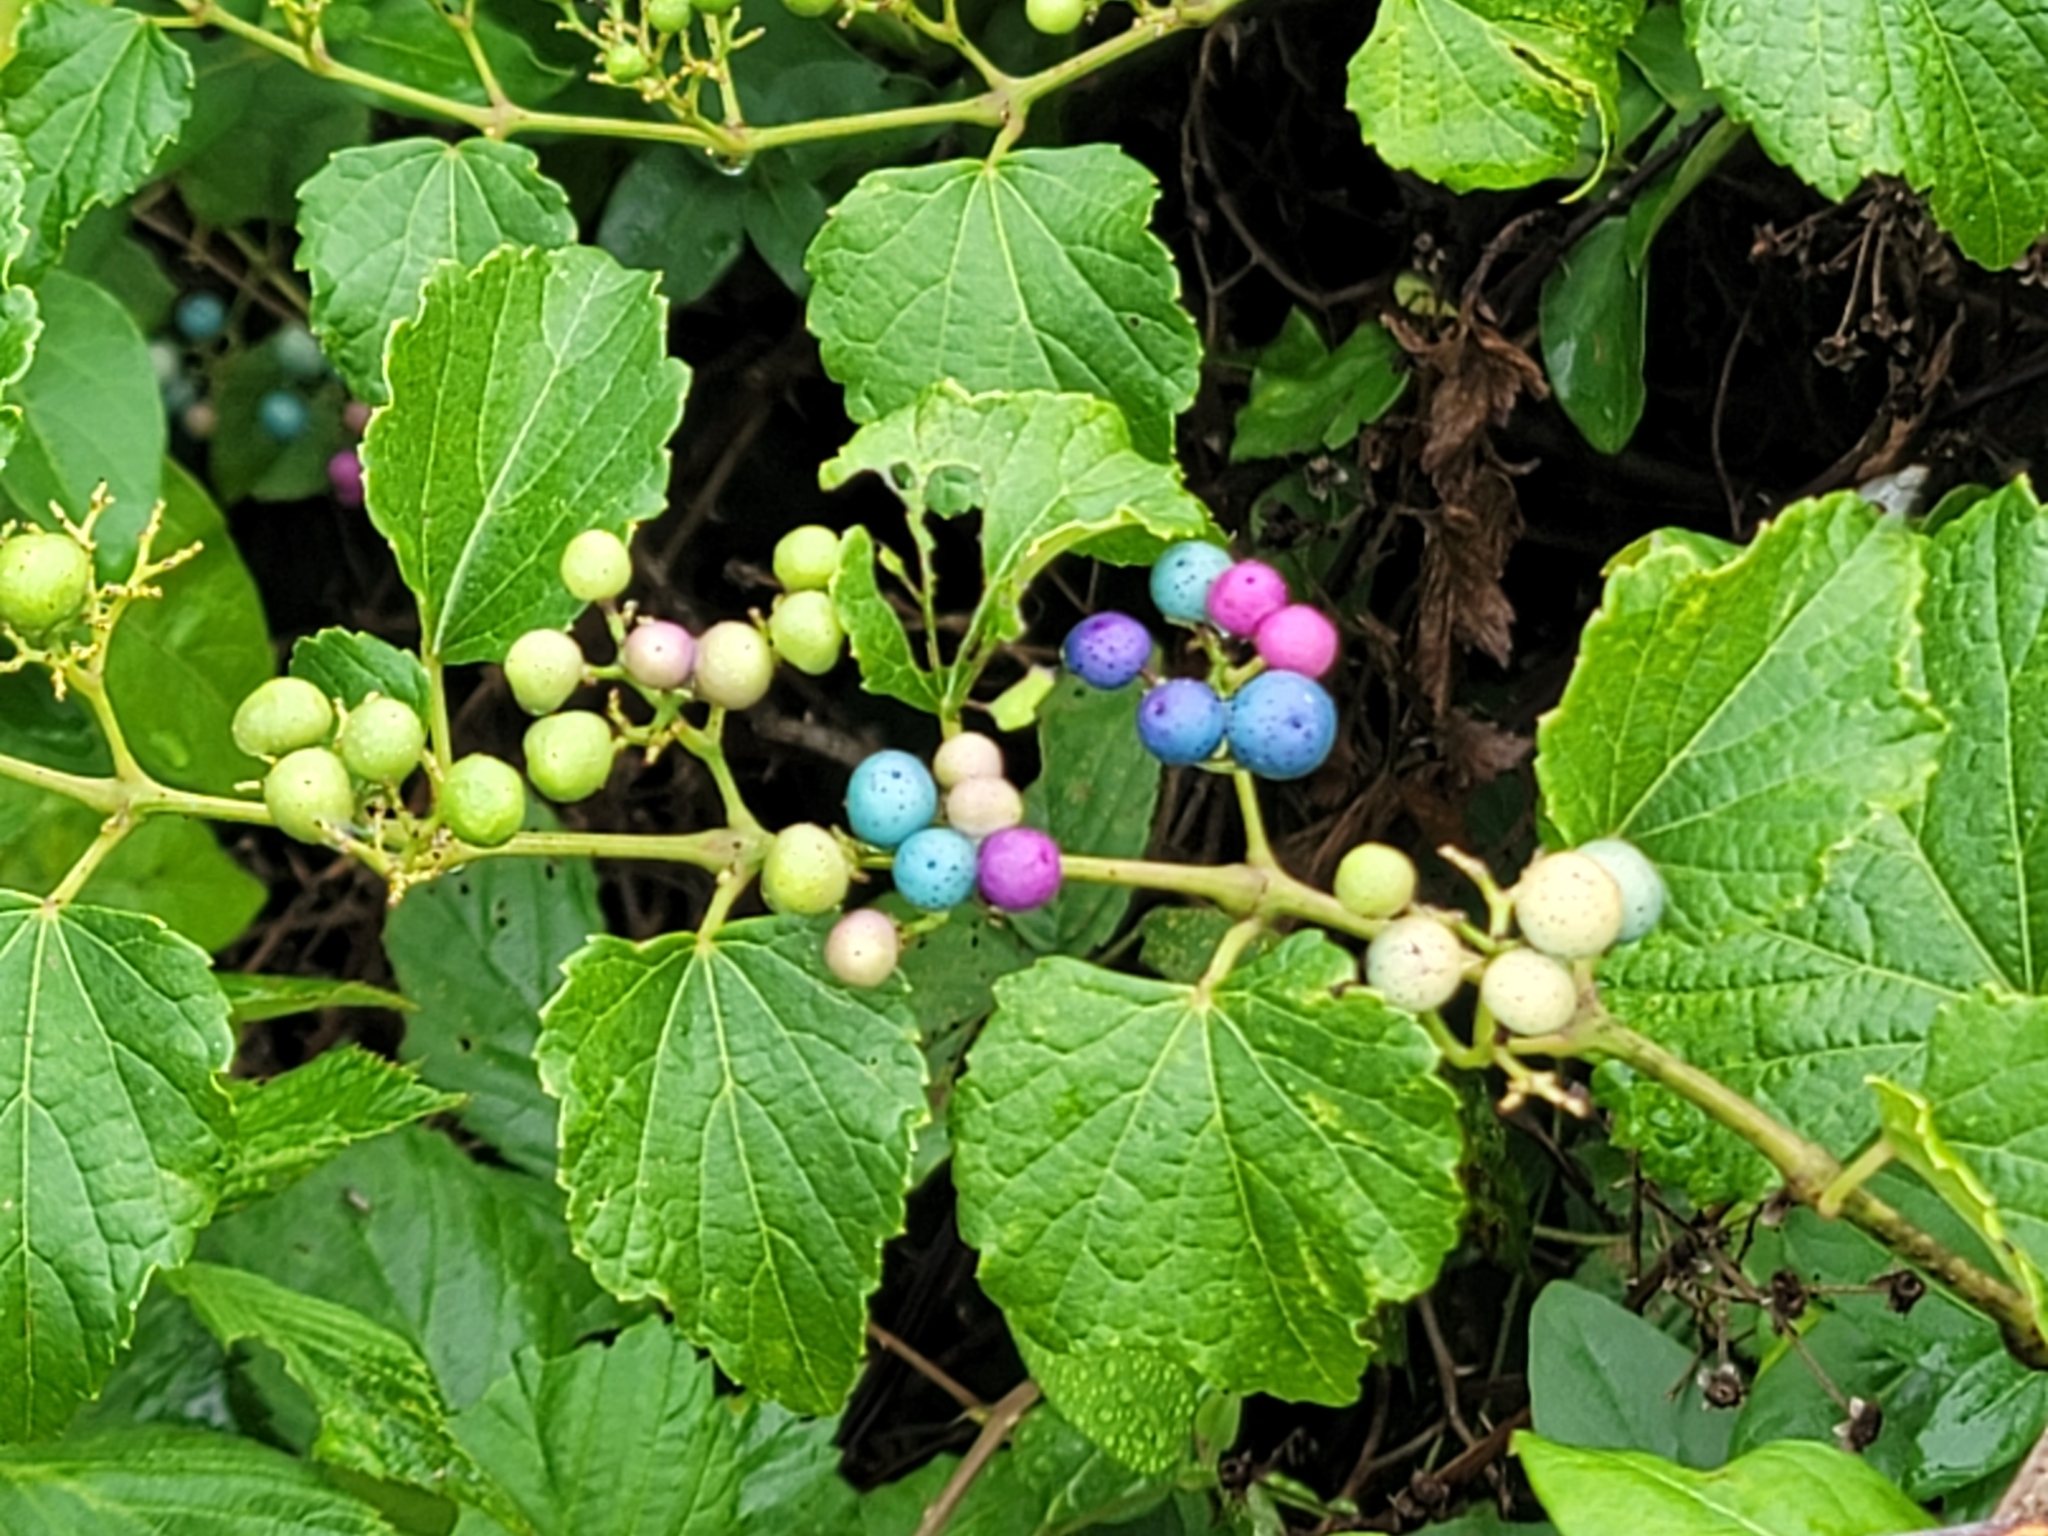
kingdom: Plantae
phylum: Tracheophyta
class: Magnoliopsida
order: Vitales
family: Vitaceae
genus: Ampelopsis
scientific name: Ampelopsis glandulosa
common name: Amur peppervine
